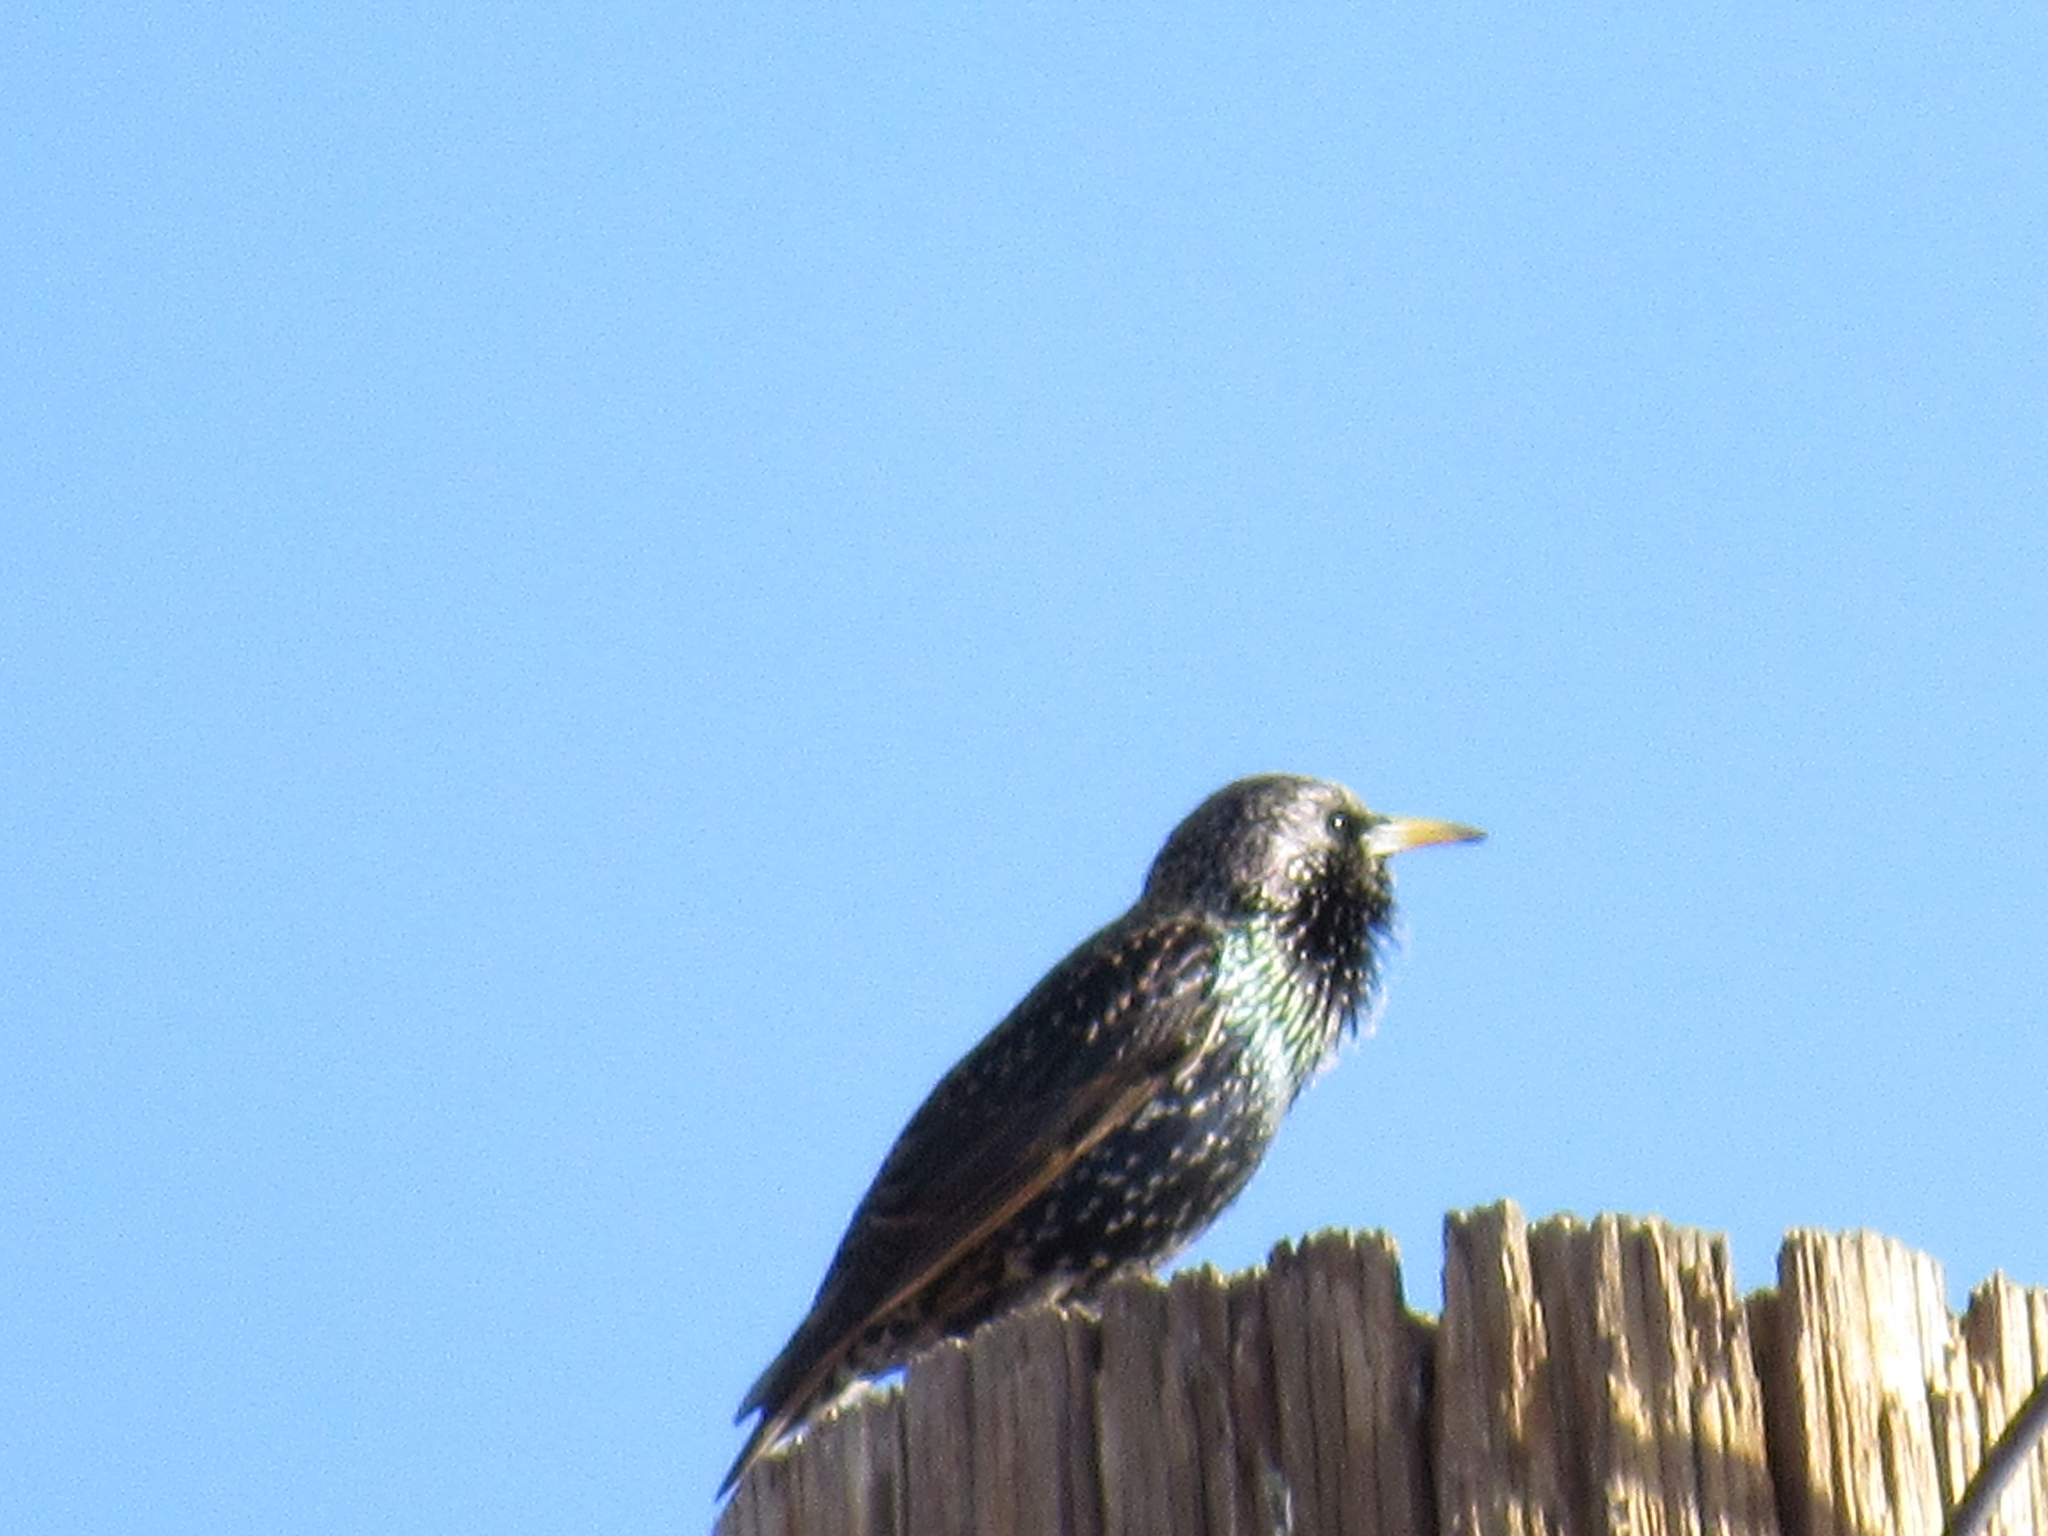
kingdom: Animalia
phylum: Chordata
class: Aves
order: Passeriformes
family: Sturnidae
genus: Sturnus
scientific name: Sturnus vulgaris
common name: Common starling
